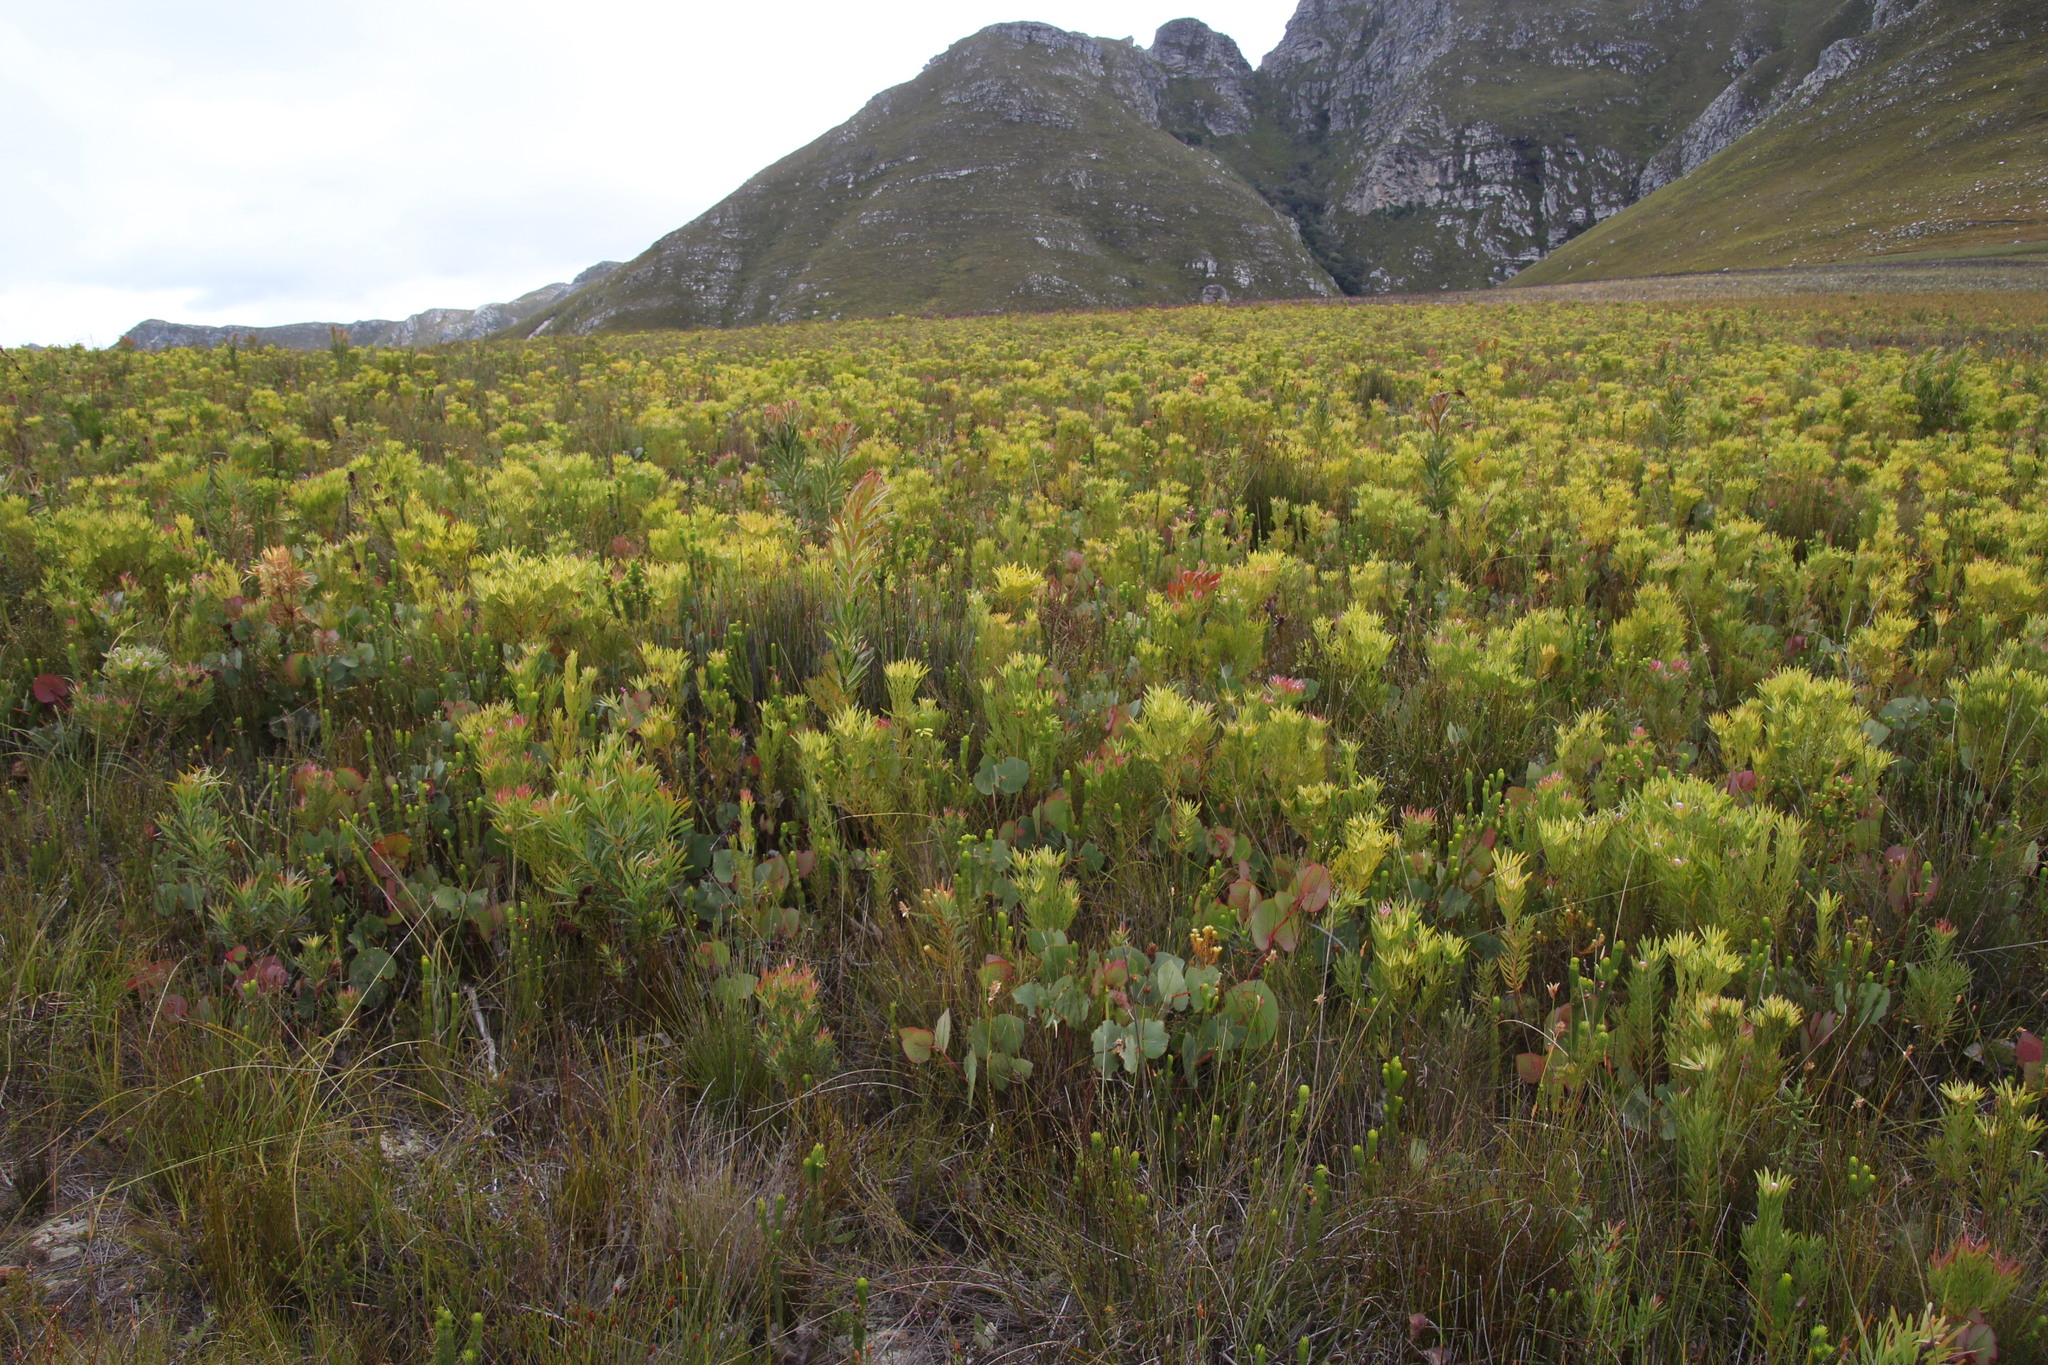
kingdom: Plantae
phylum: Tracheophyta
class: Magnoliopsida
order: Proteales
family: Proteaceae
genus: Leucadendron
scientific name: Leucadendron xanthoconus
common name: Sickle-leaf conebush
